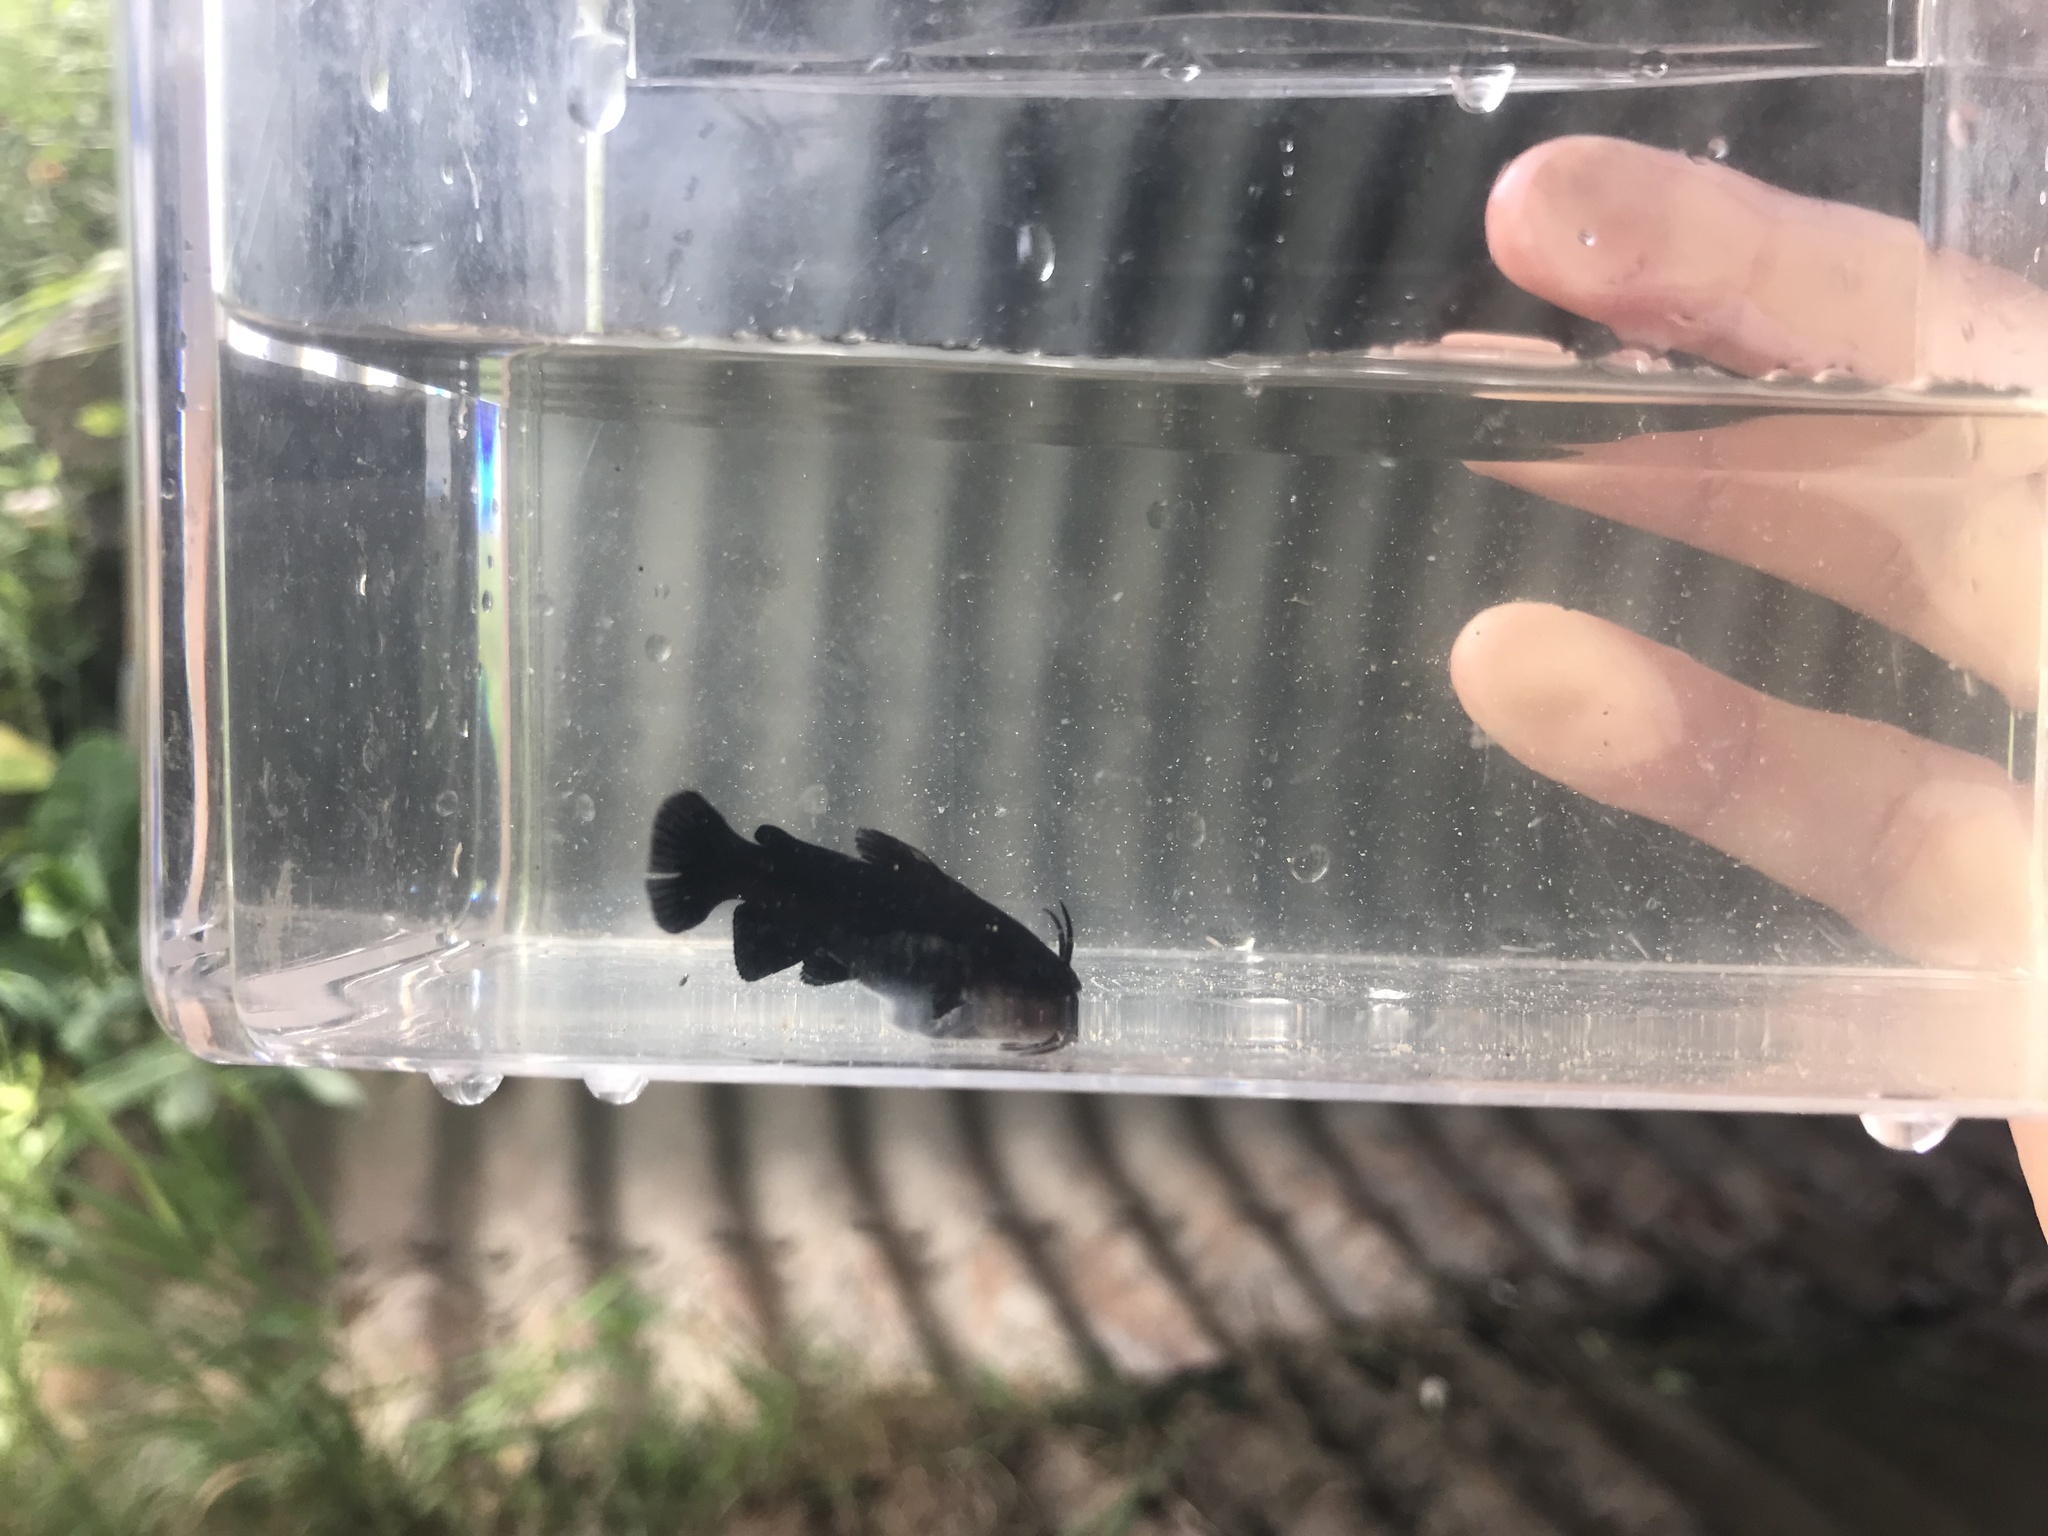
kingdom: Animalia
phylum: Chordata
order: Siluriformes
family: Ictaluridae
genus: Ameiurus
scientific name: Ameiurus melas
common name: Black bullhead
